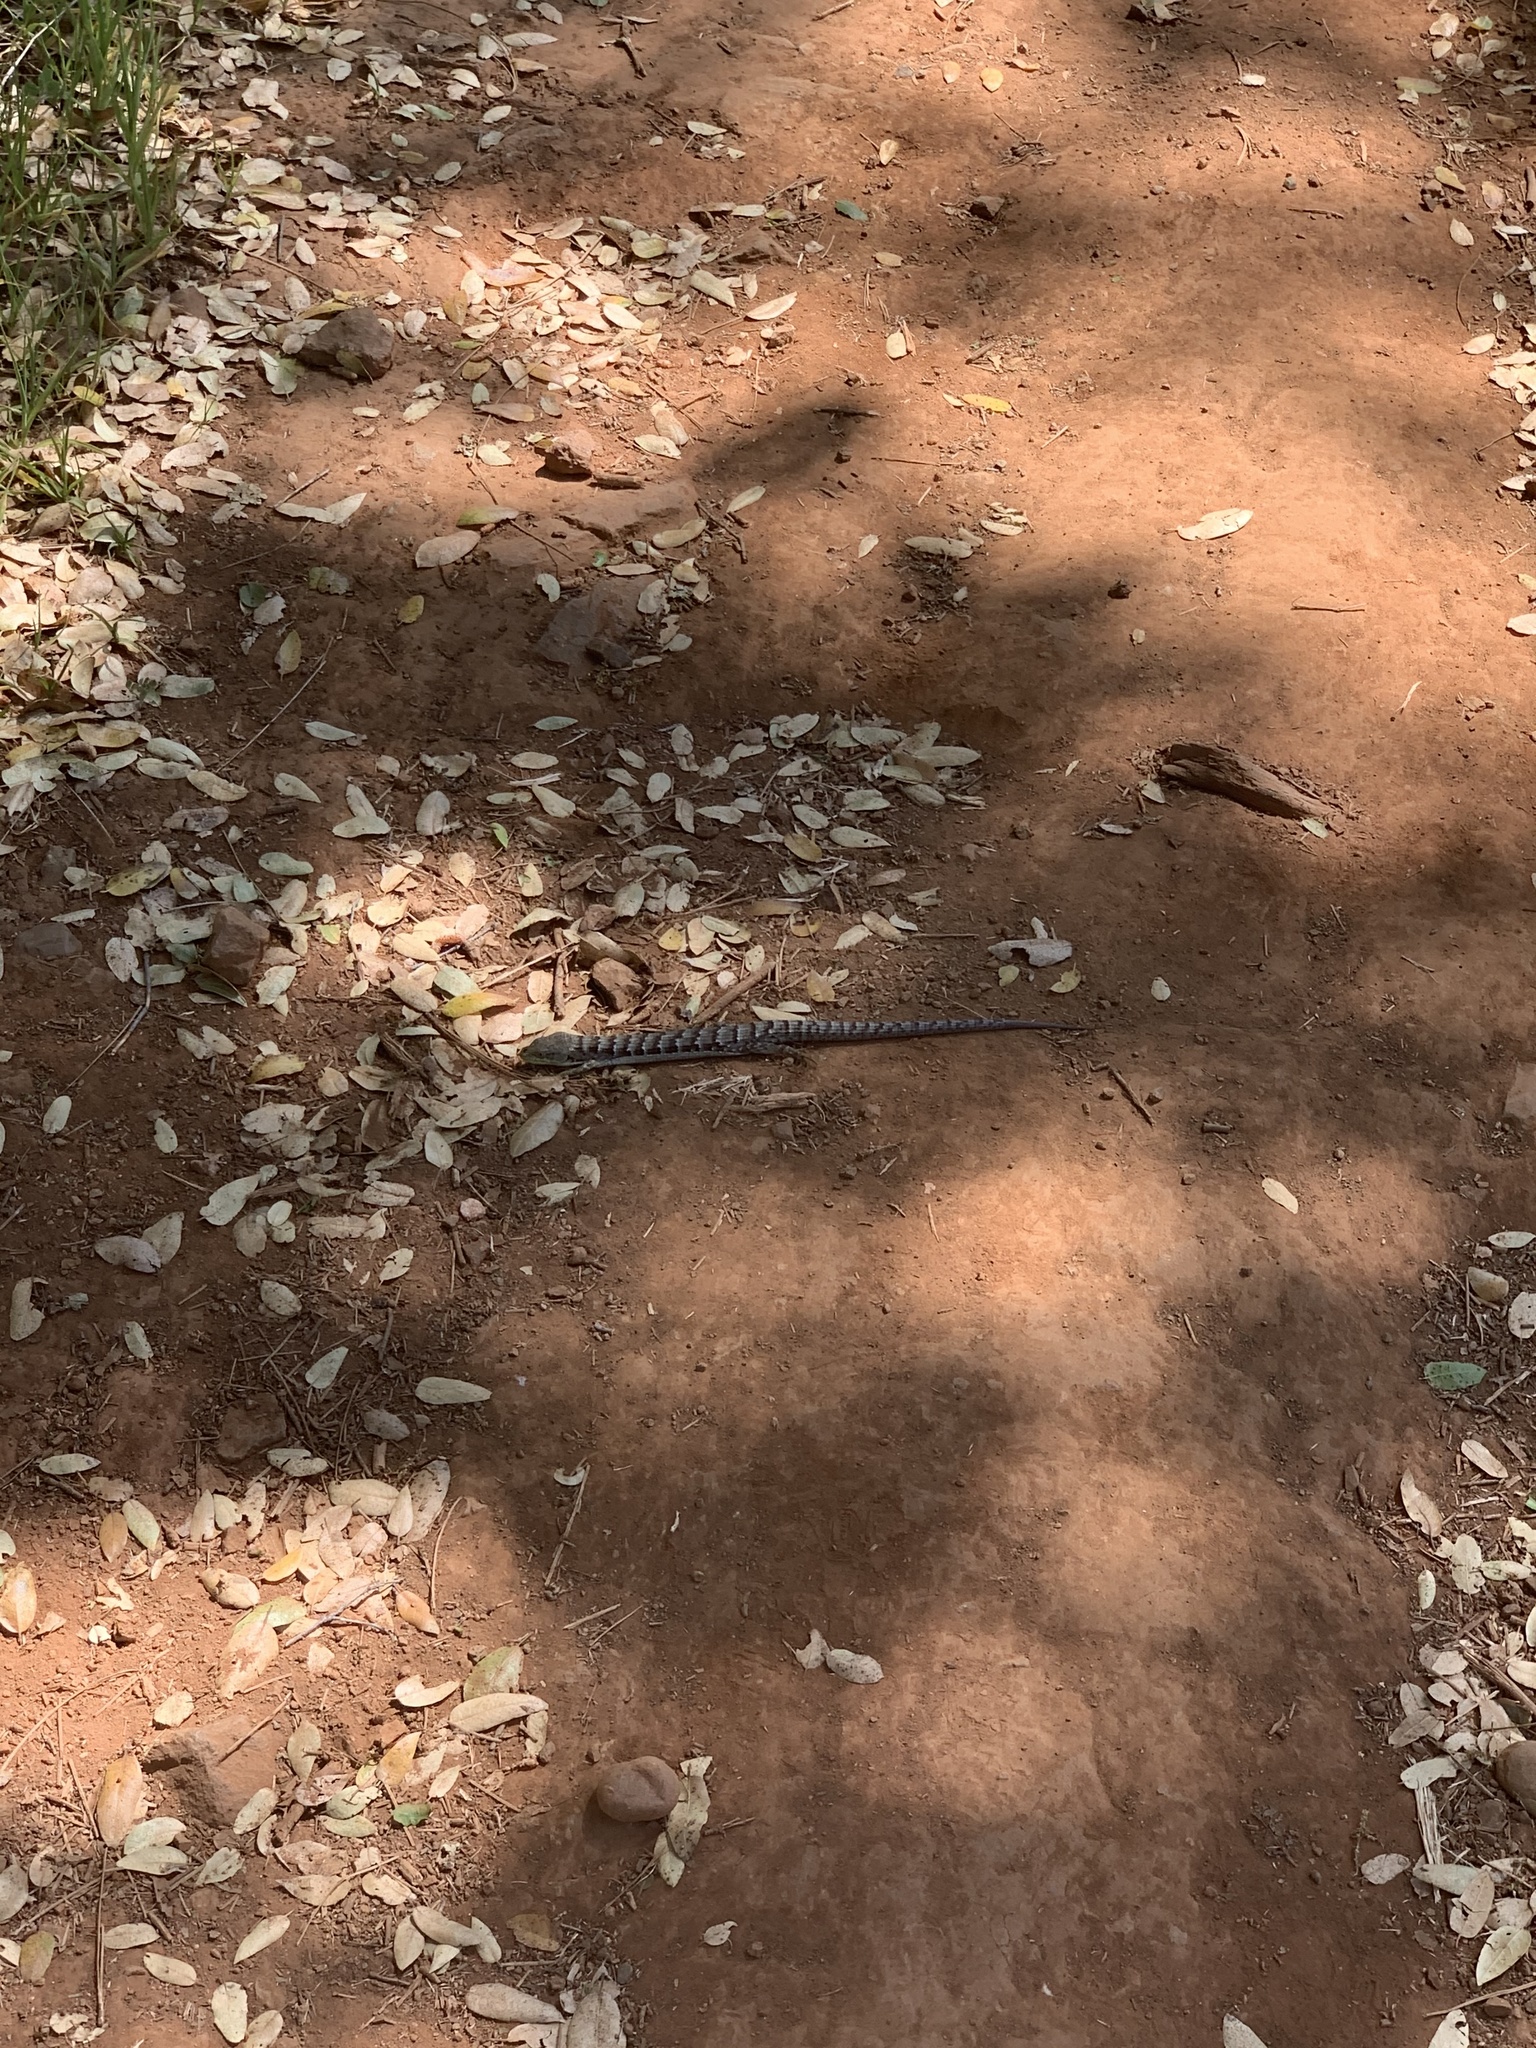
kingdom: Animalia
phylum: Chordata
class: Squamata
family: Anguidae
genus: Elgaria
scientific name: Elgaria multicarinata
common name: Southern alligator lizard
